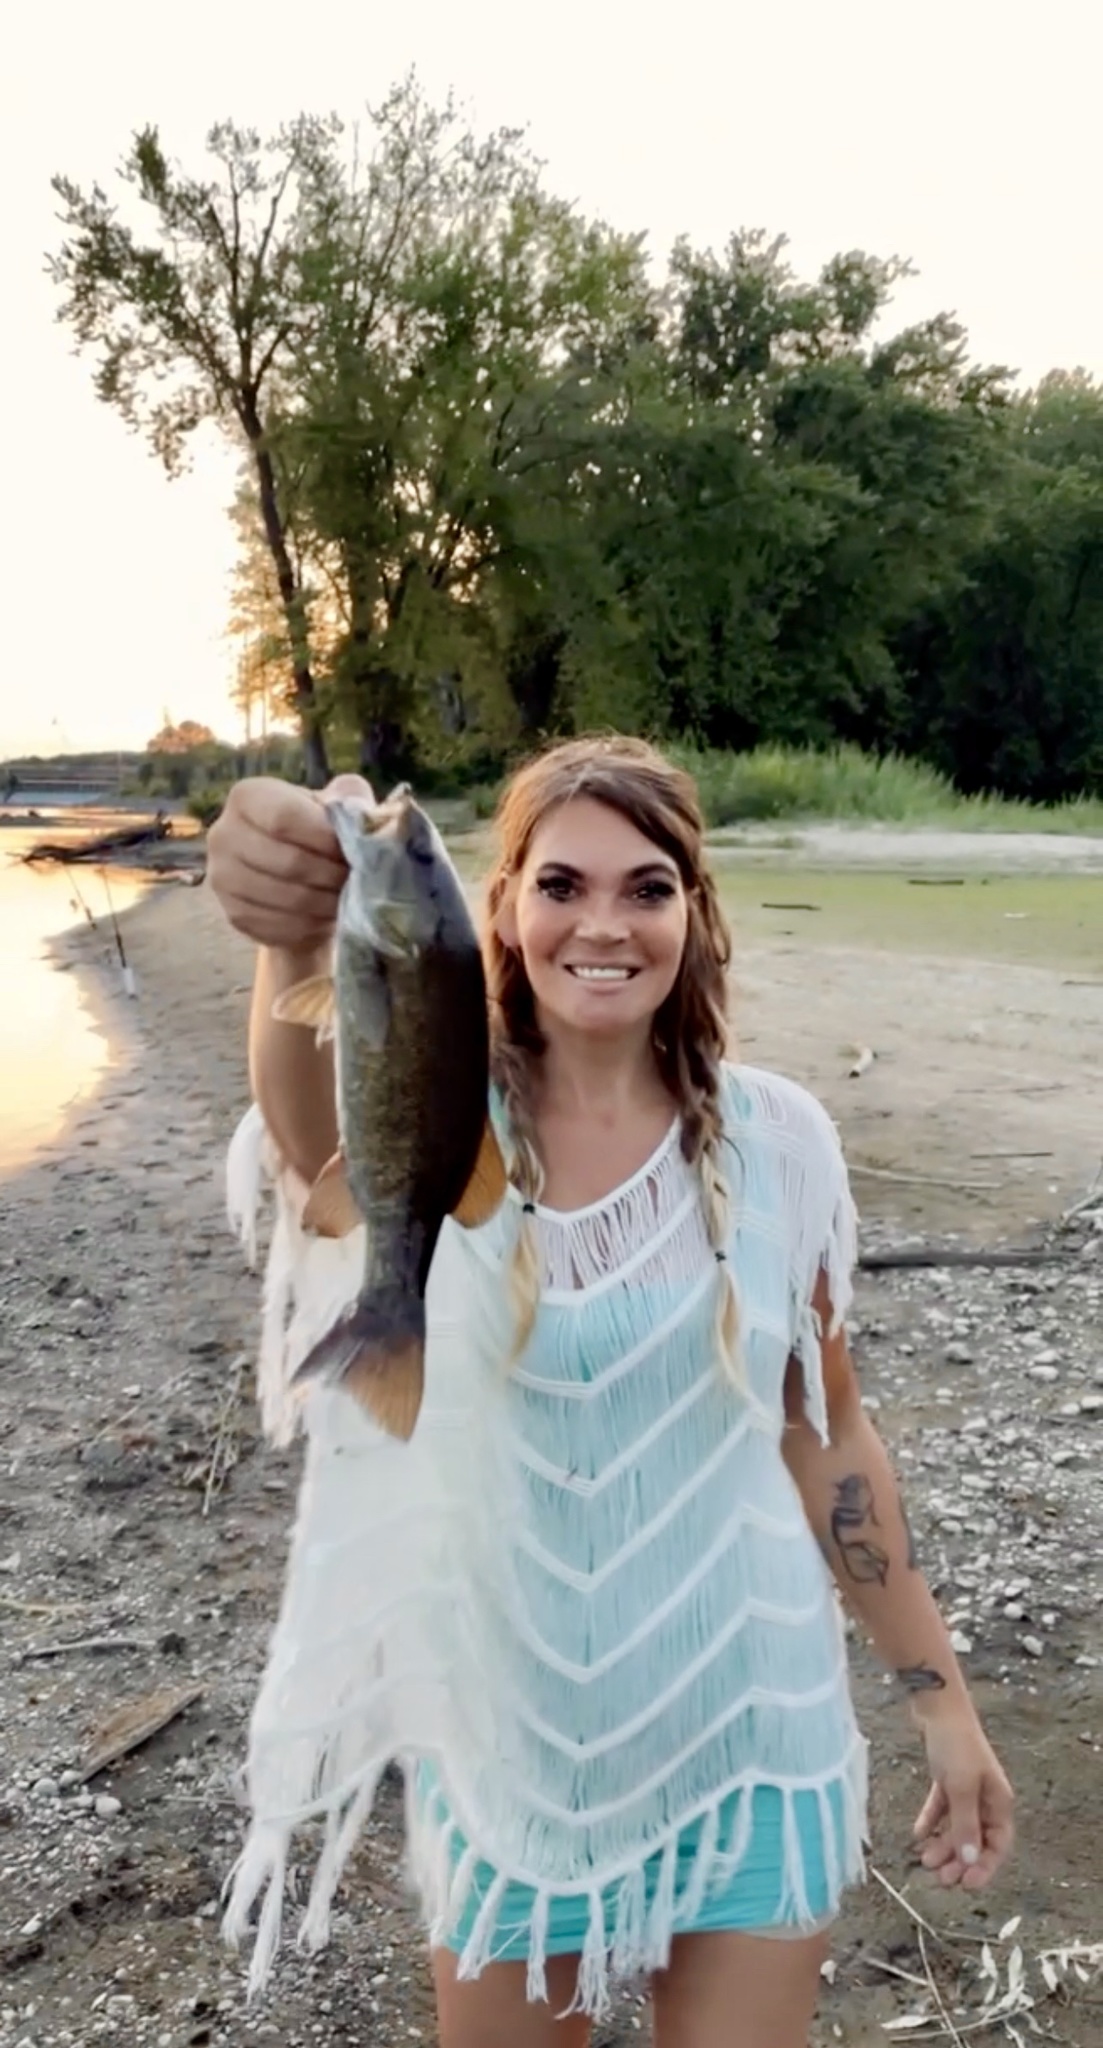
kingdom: Animalia
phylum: Chordata
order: Perciformes
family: Centrarchidae
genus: Micropterus
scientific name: Micropterus dolomieu
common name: Smallmouth bass
